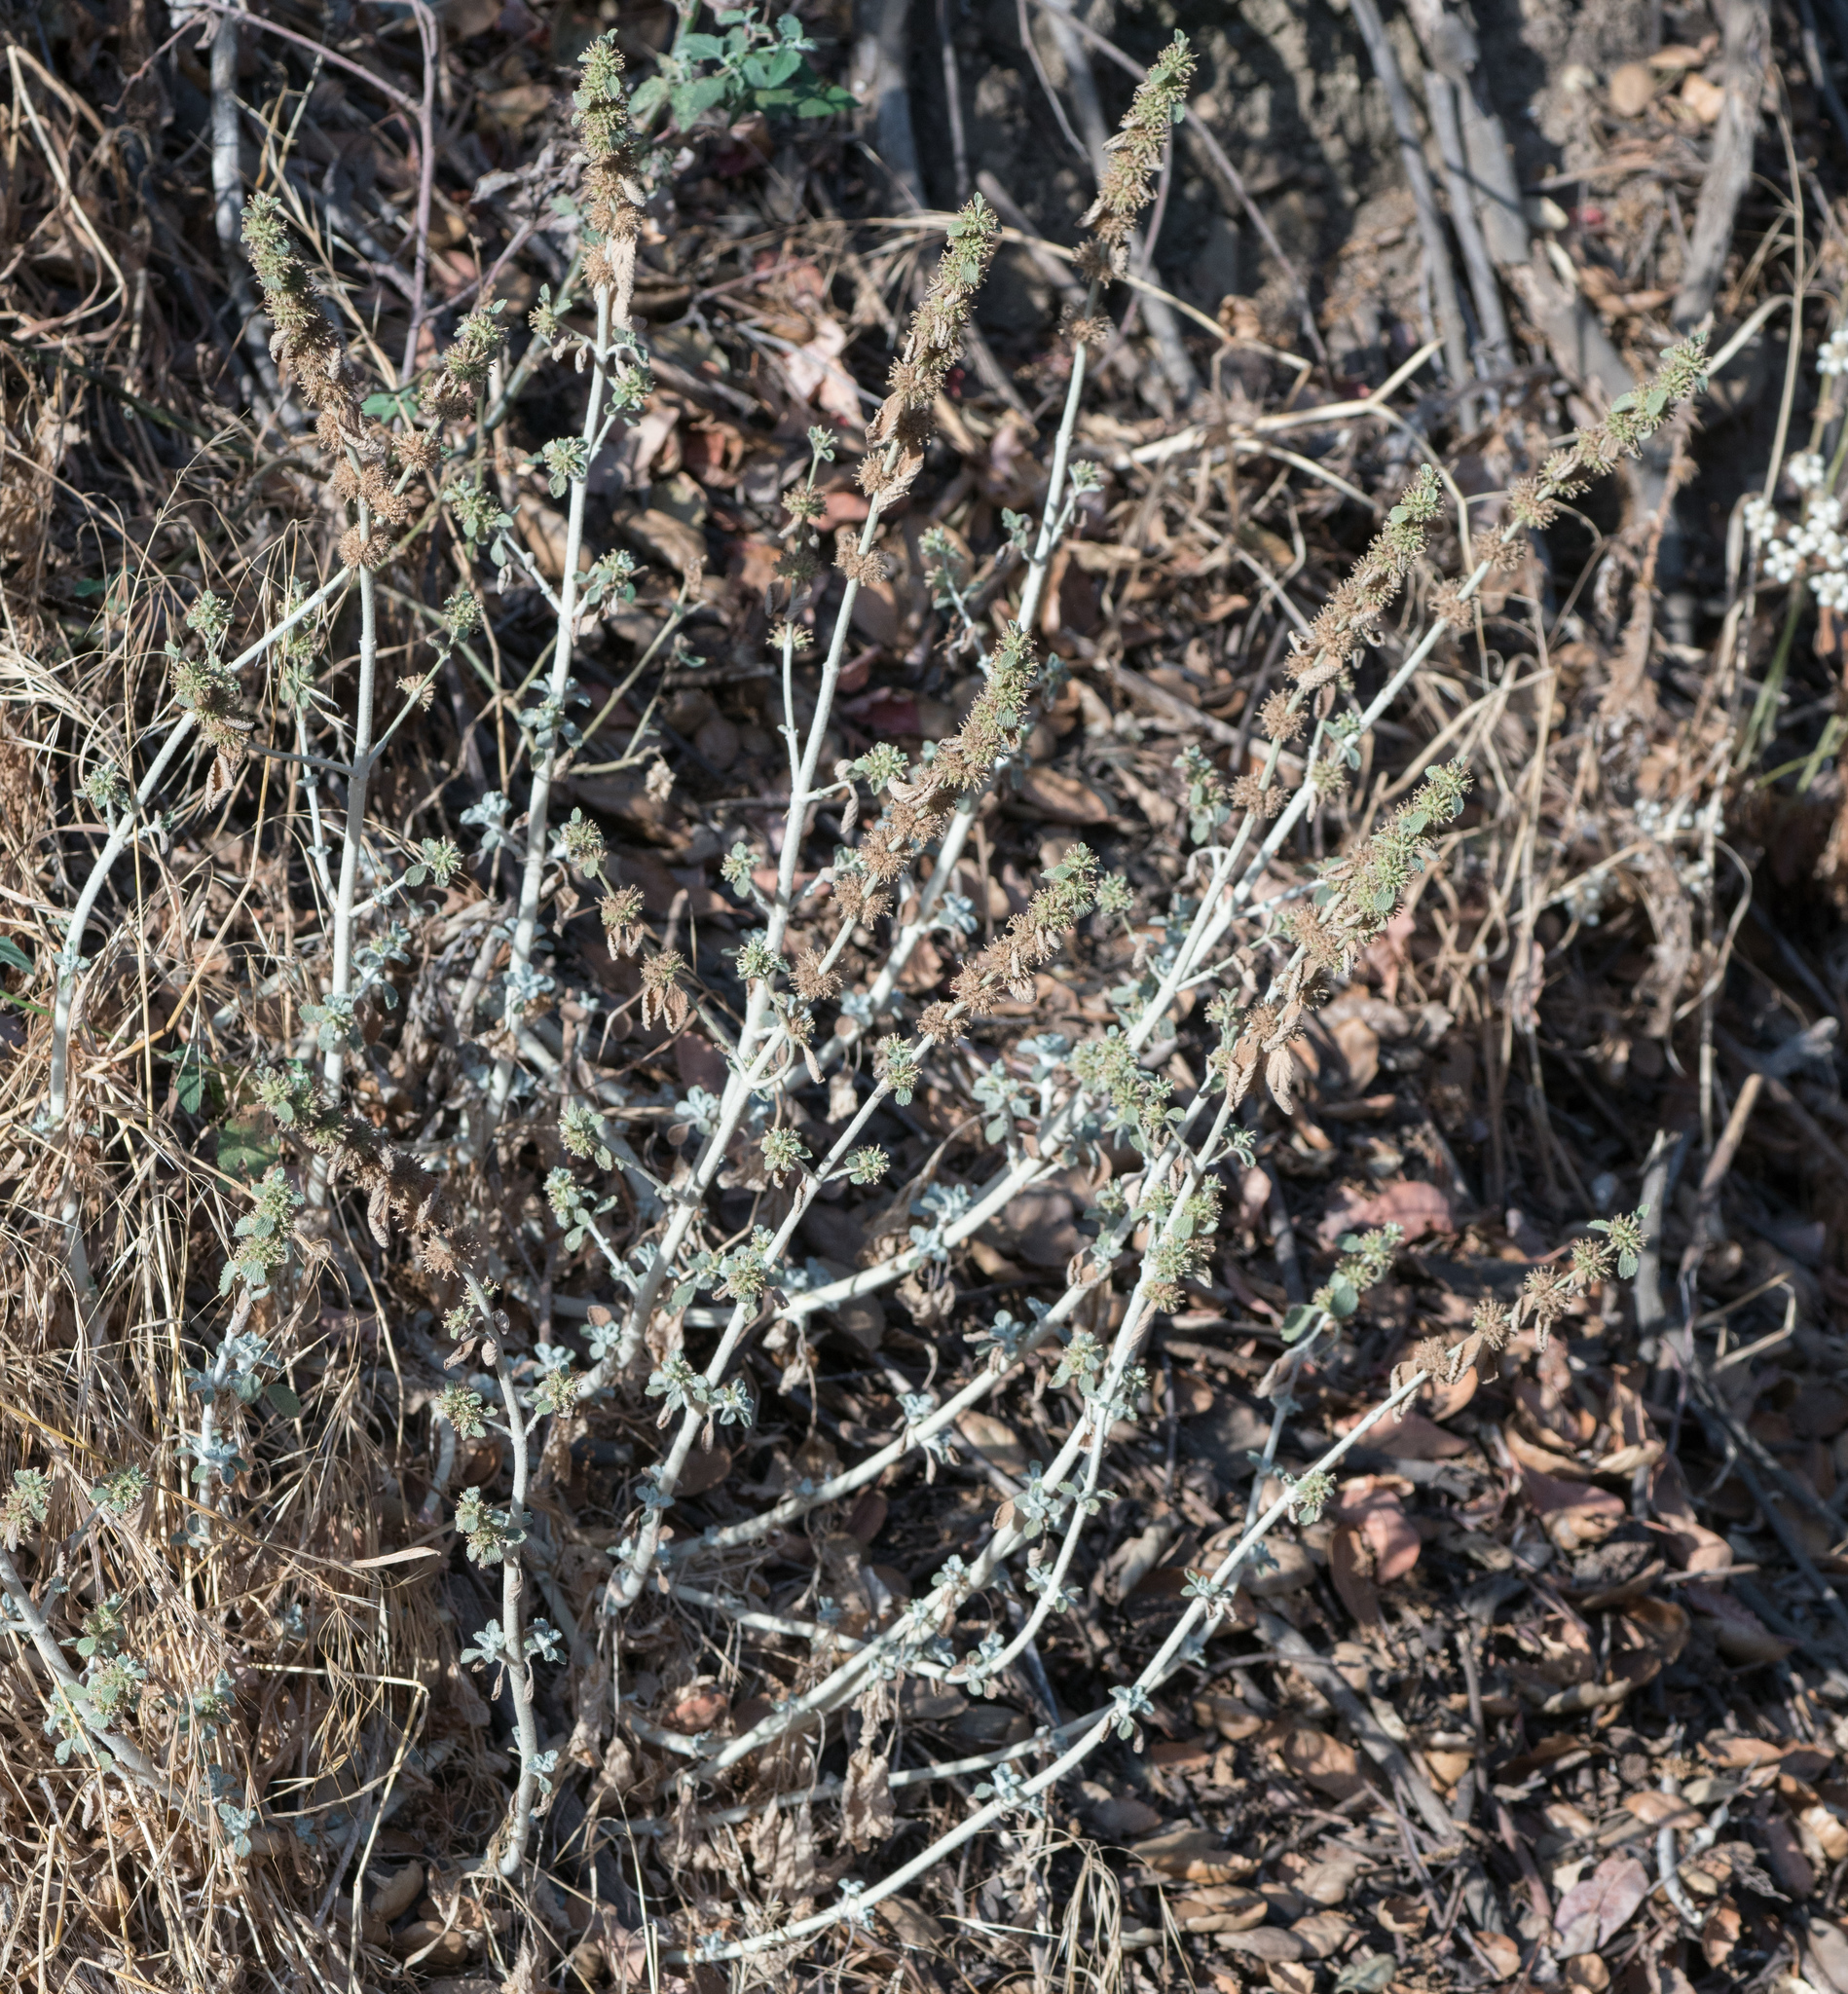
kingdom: Plantae
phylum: Tracheophyta
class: Magnoliopsida
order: Lamiales
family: Lamiaceae
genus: Marrubium
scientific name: Marrubium vulgare
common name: Horehound
